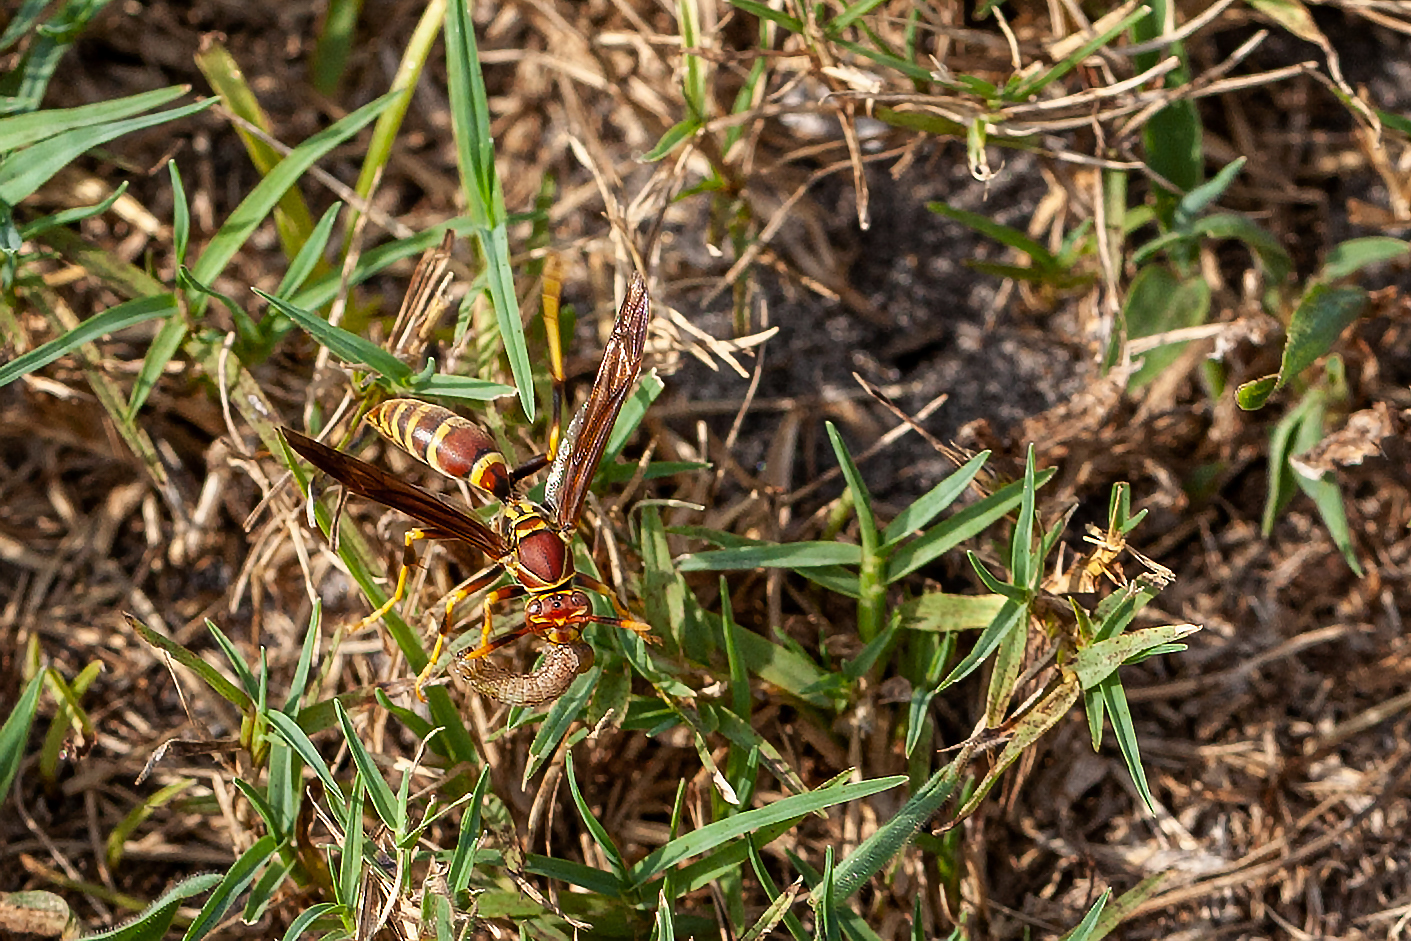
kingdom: Animalia
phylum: Arthropoda
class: Insecta
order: Hymenoptera
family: Eumenidae
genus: Polistes
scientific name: Polistes exclamans
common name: Paper wasp
